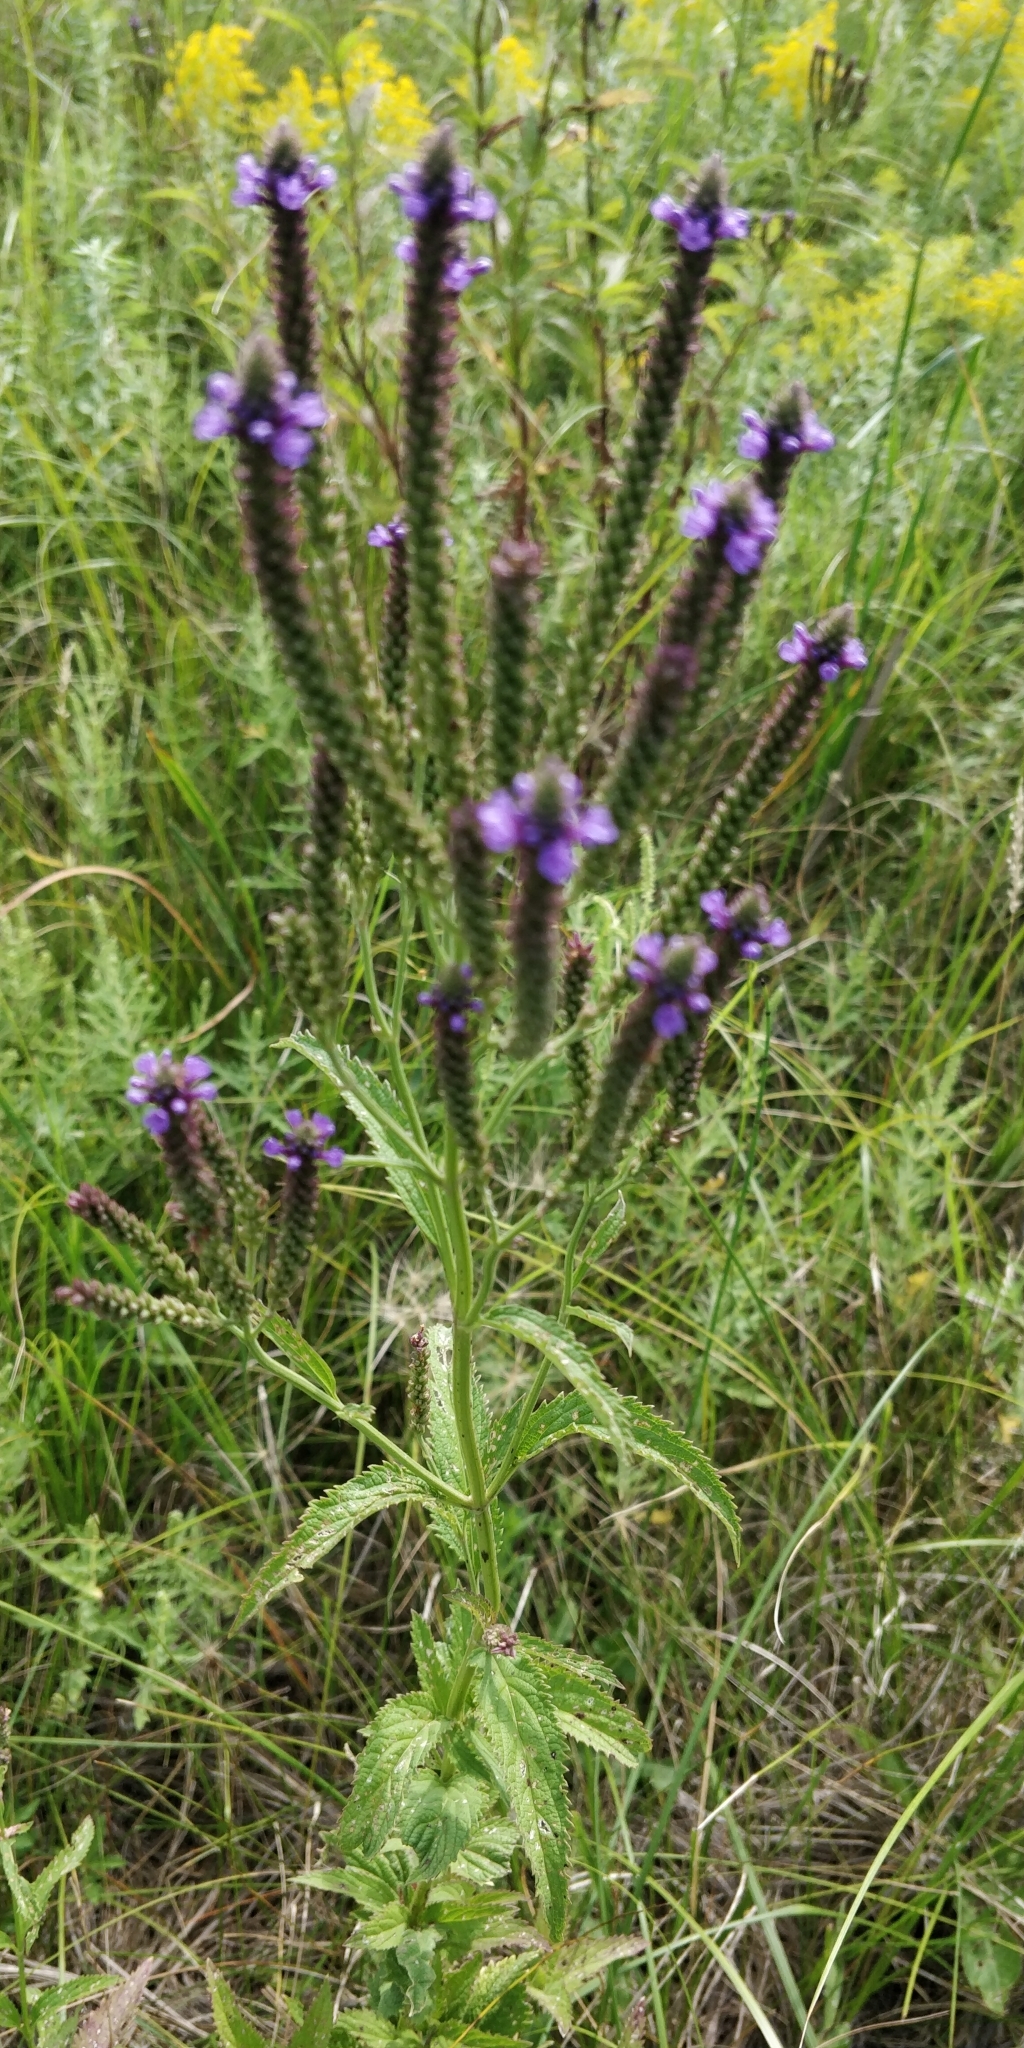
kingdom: Plantae
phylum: Tracheophyta
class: Magnoliopsida
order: Lamiales
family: Verbenaceae
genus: Verbena
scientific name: Verbena hastata
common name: American blue vervain
